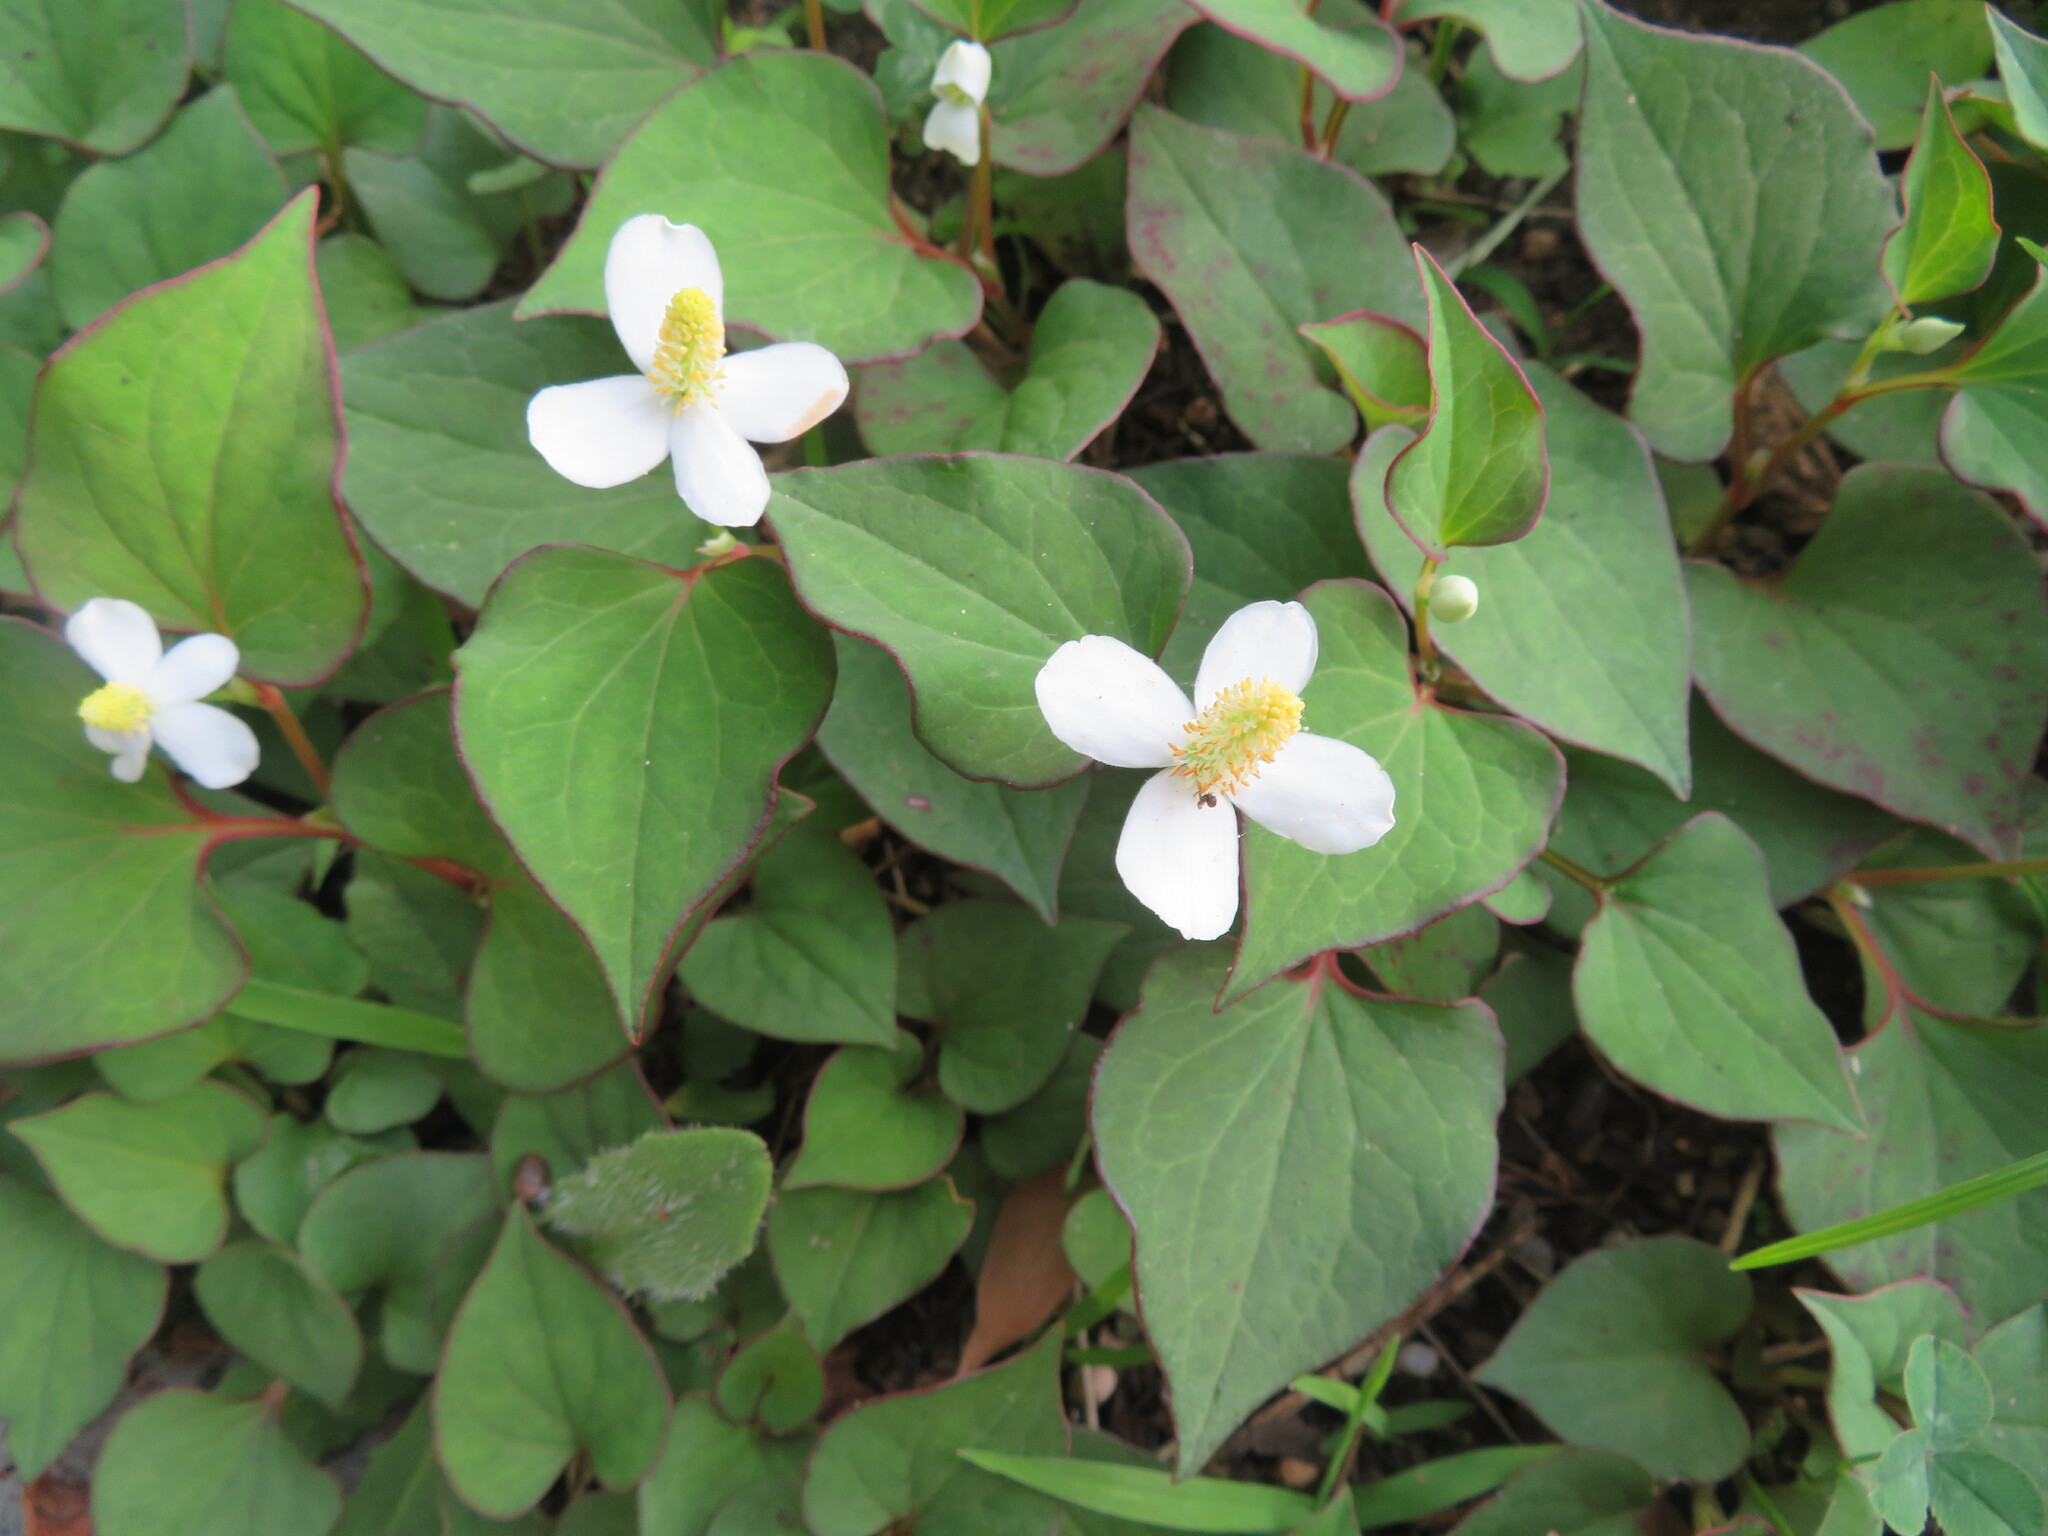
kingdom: Plantae
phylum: Tracheophyta
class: Magnoliopsida
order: Piperales
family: Saururaceae
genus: Houttuynia
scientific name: Houttuynia cordata
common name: Chameleon
